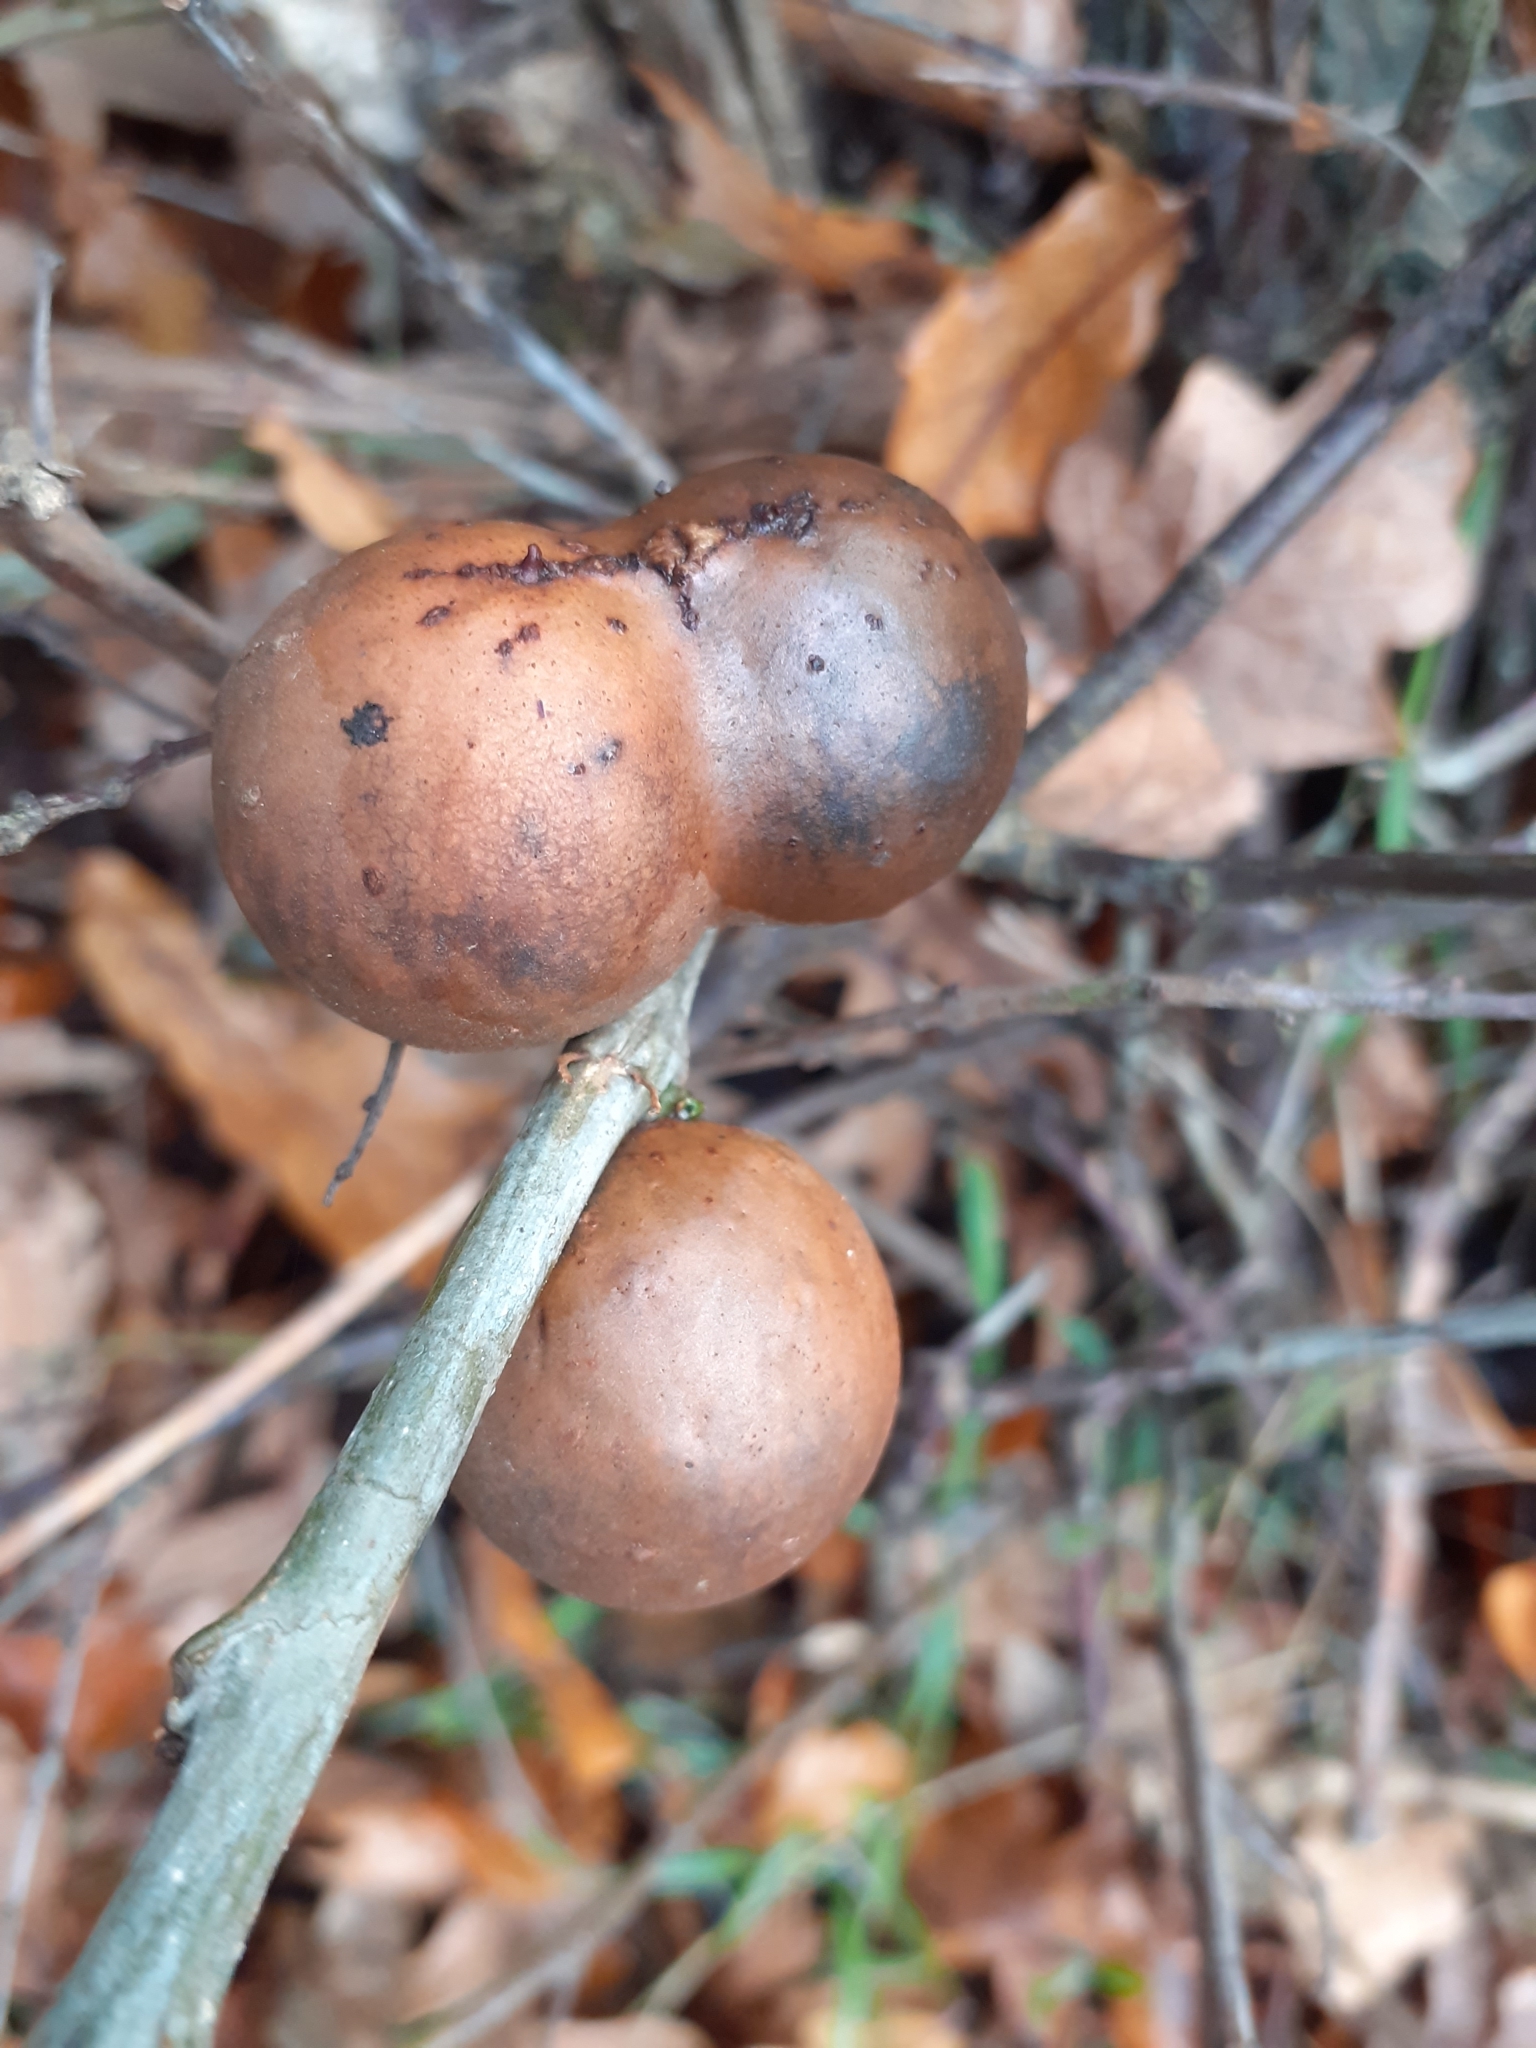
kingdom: Animalia
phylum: Arthropoda
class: Insecta
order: Hymenoptera
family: Cynipidae
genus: Andricus
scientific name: Andricus kollari
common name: Marble gall
